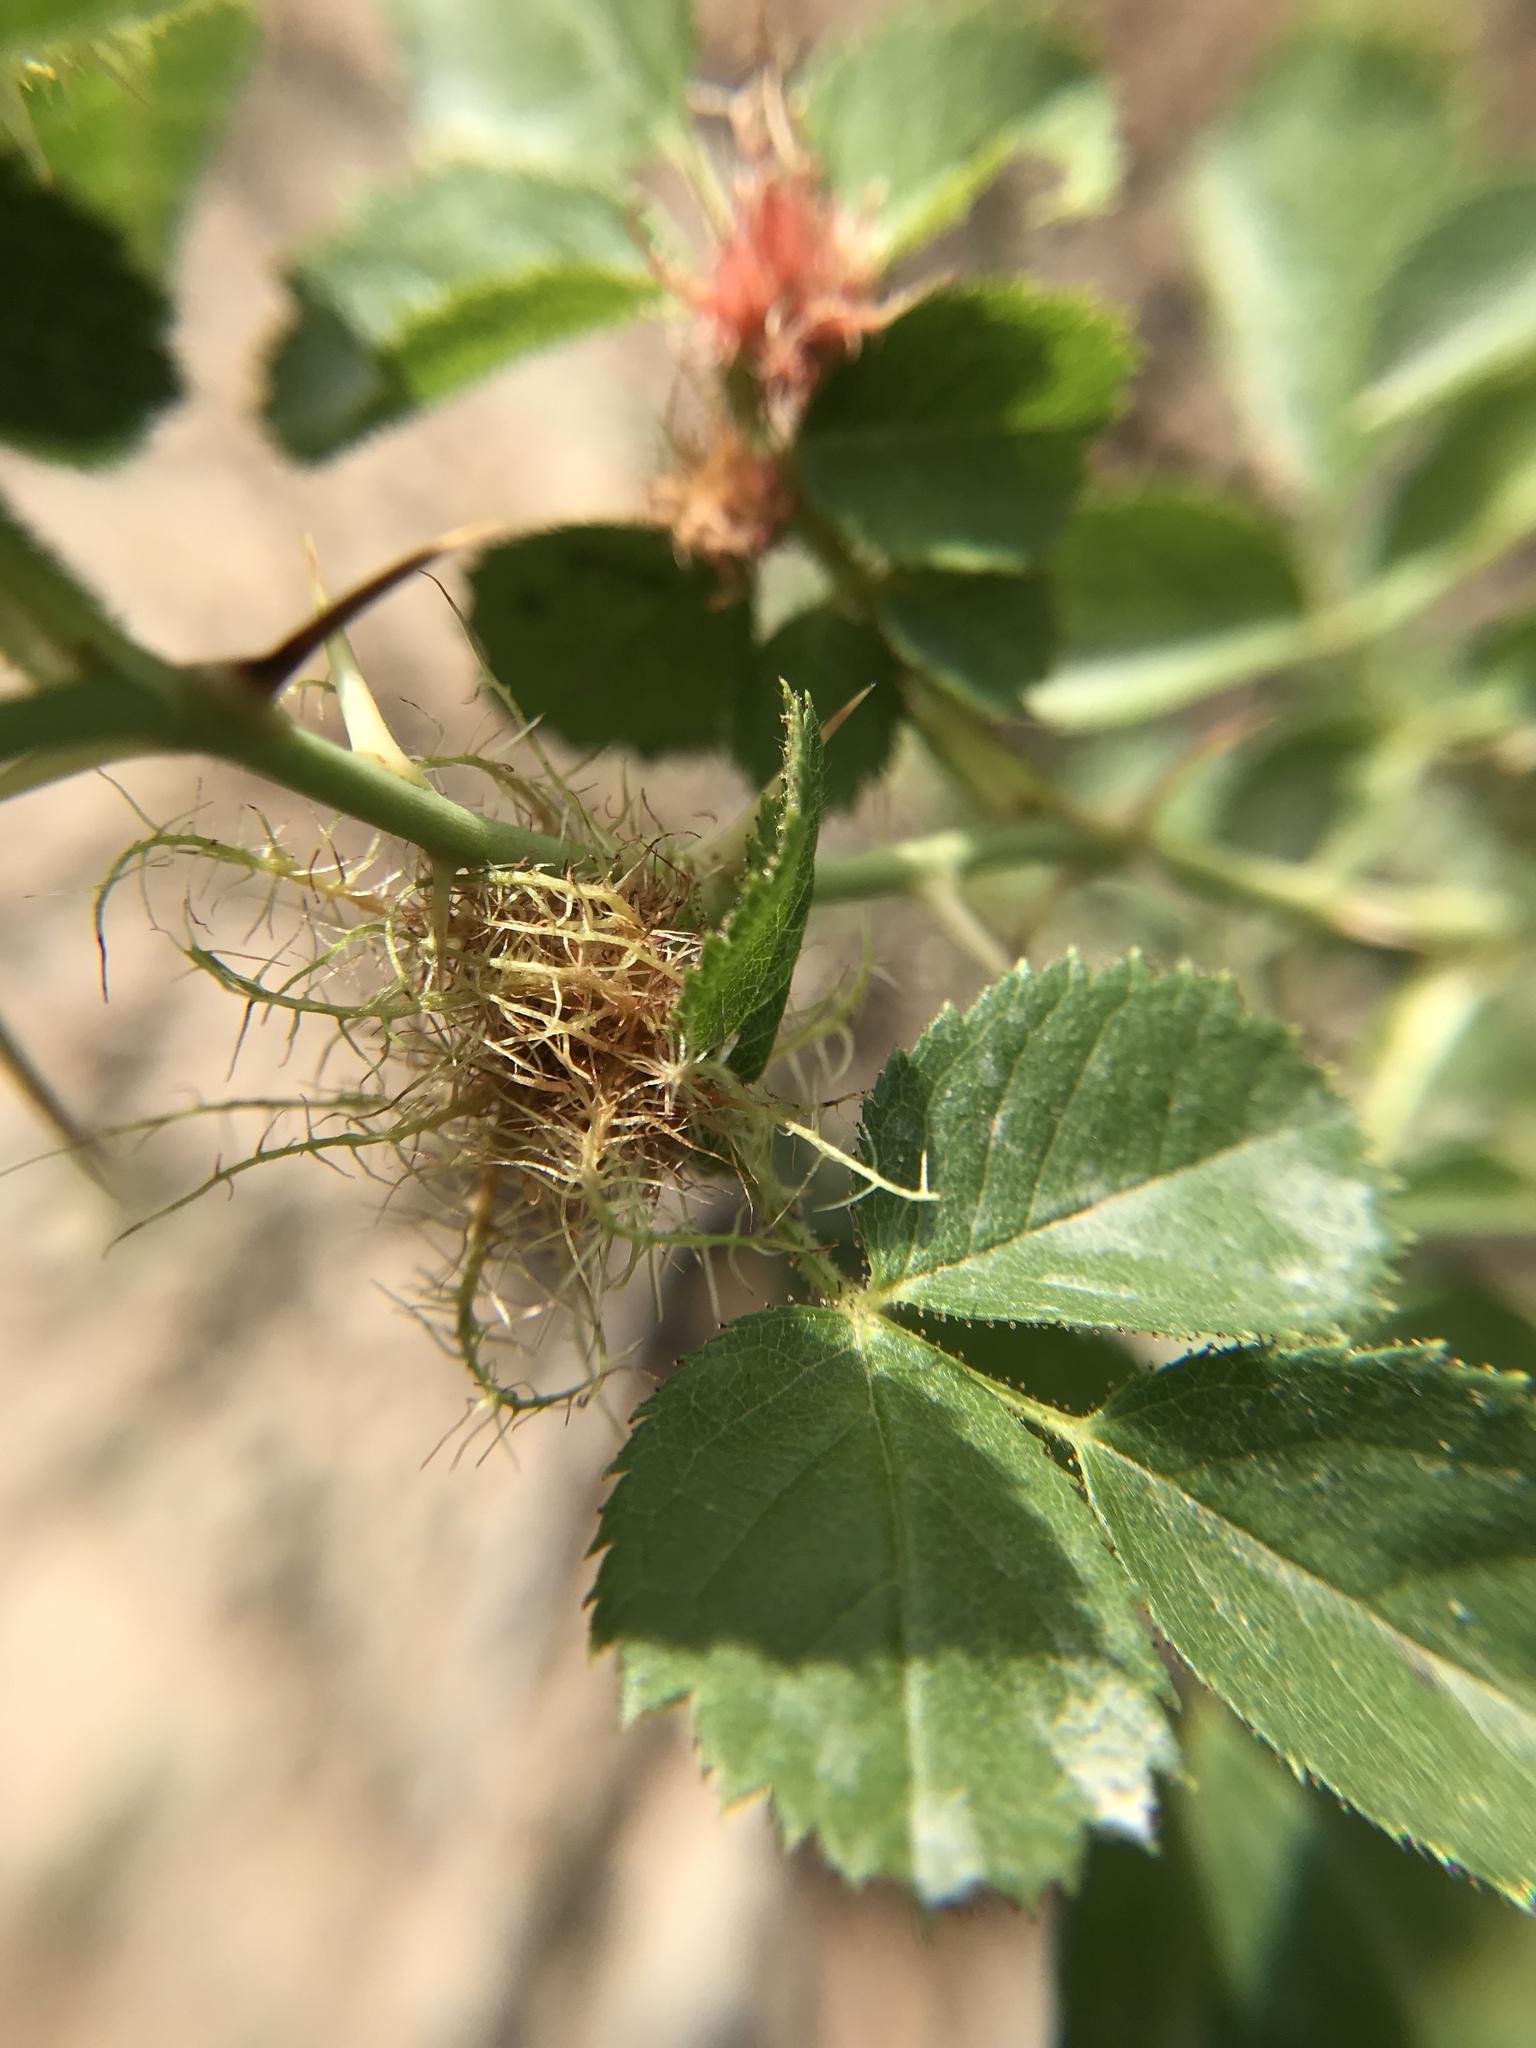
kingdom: Animalia
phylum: Arthropoda
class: Insecta
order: Hymenoptera
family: Cynipidae
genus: Diplolepis
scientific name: Diplolepis rosae
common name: Bedeguar gall
